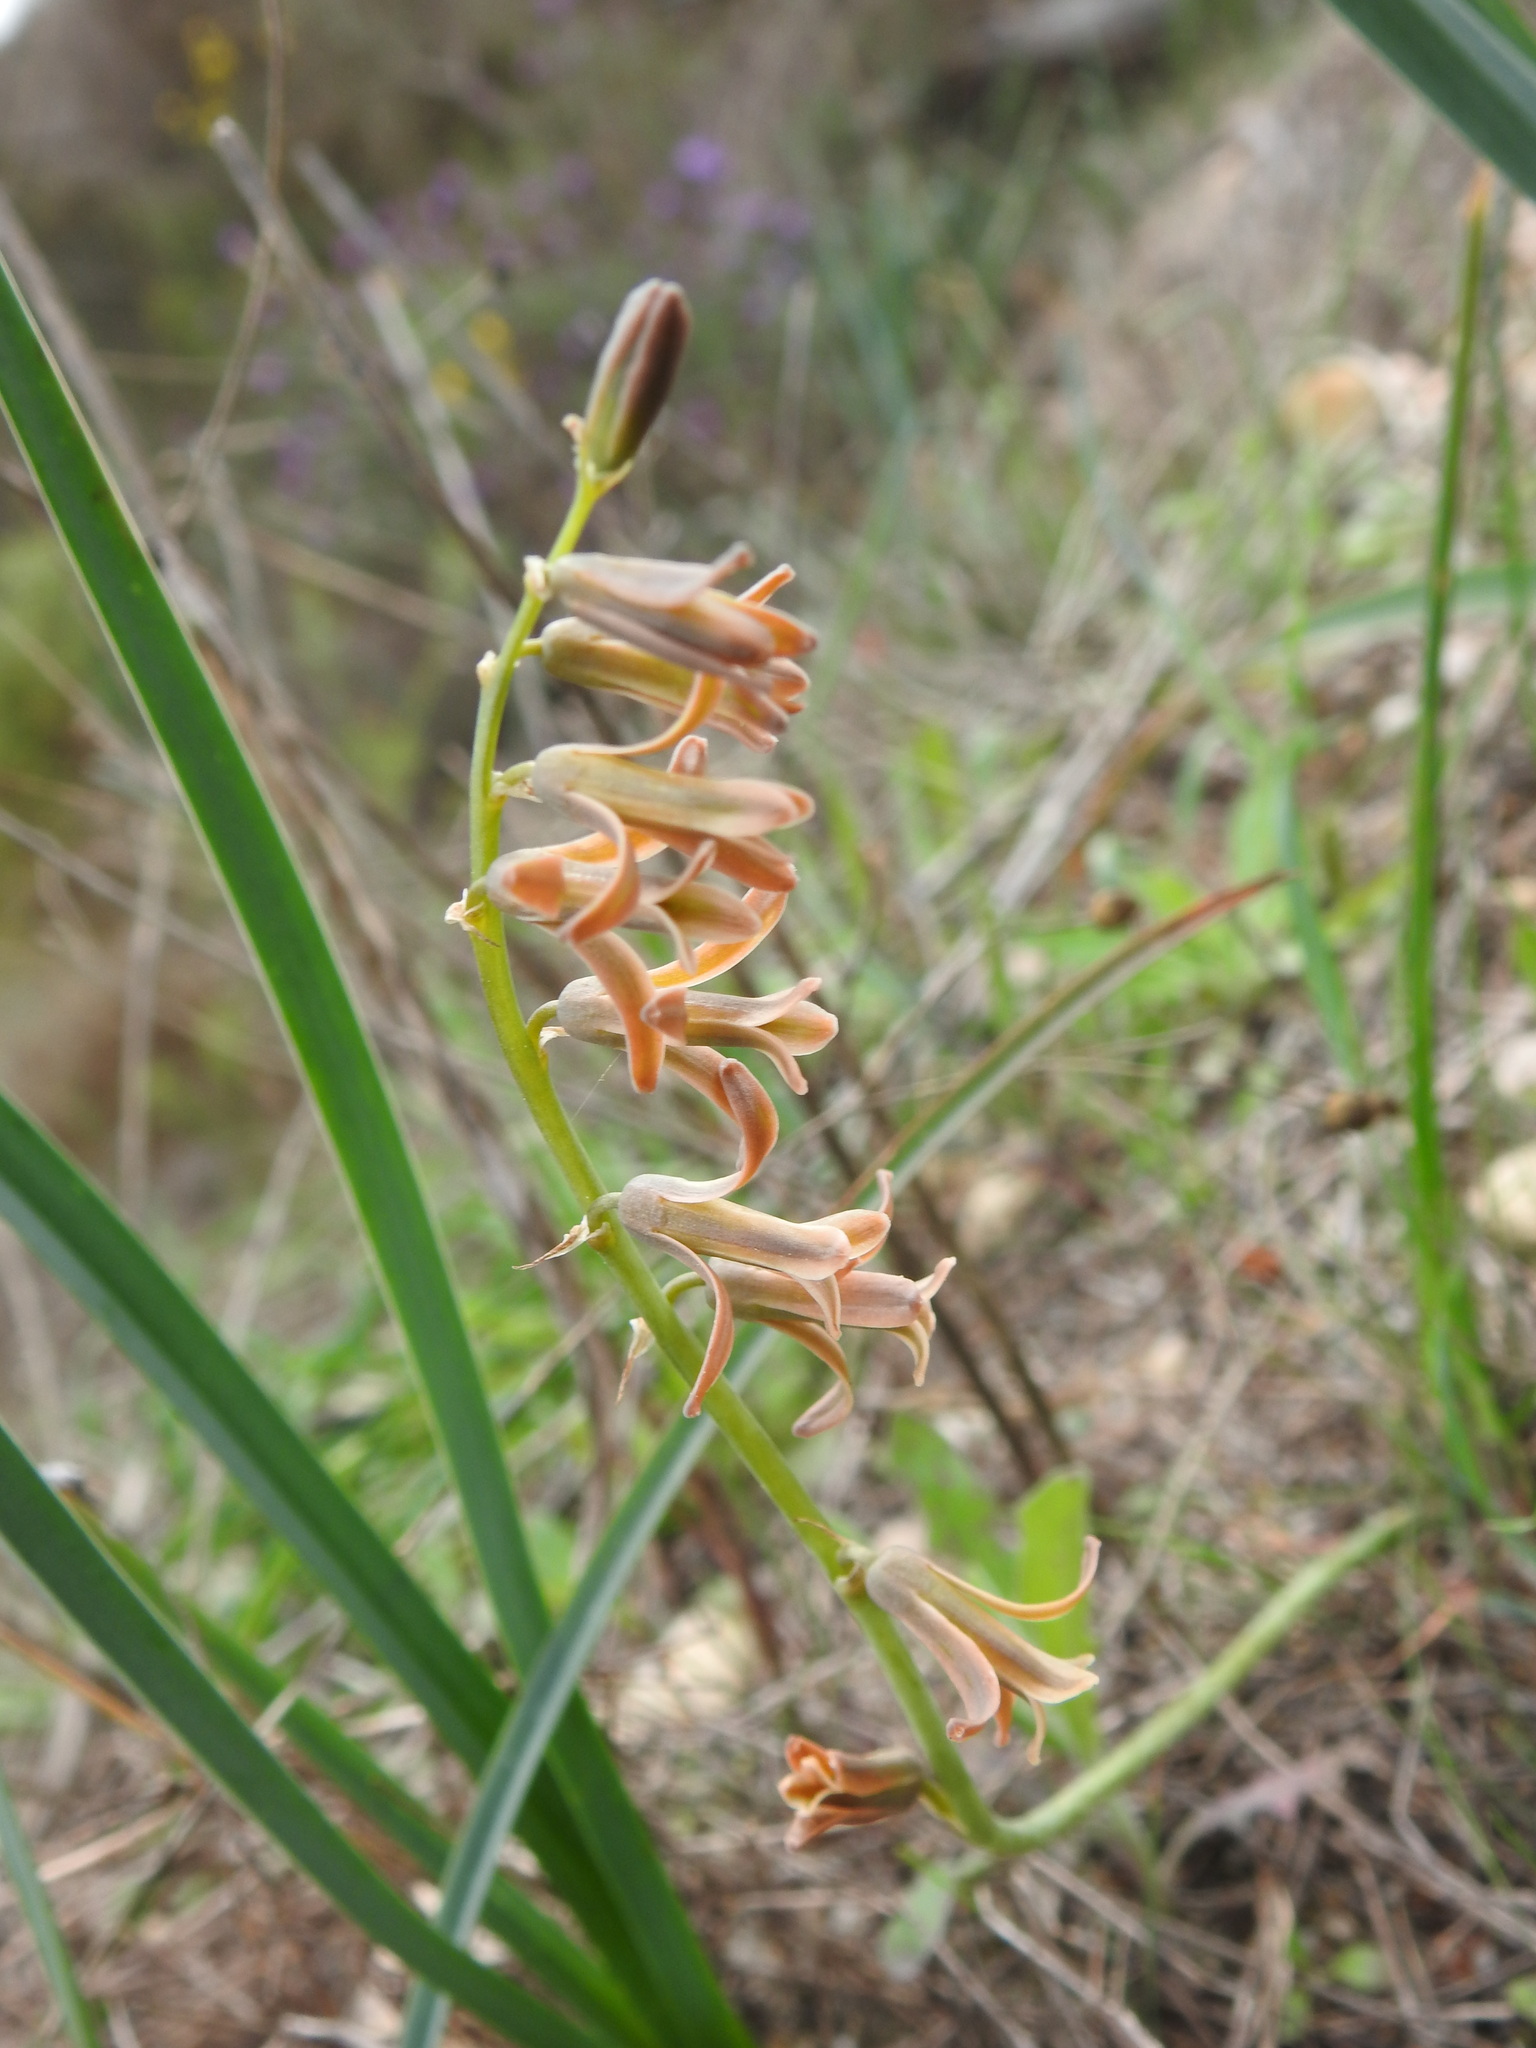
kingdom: Plantae
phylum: Tracheophyta
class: Liliopsida
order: Asparagales
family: Asparagaceae
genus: Dipcadi
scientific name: Dipcadi serotinum
